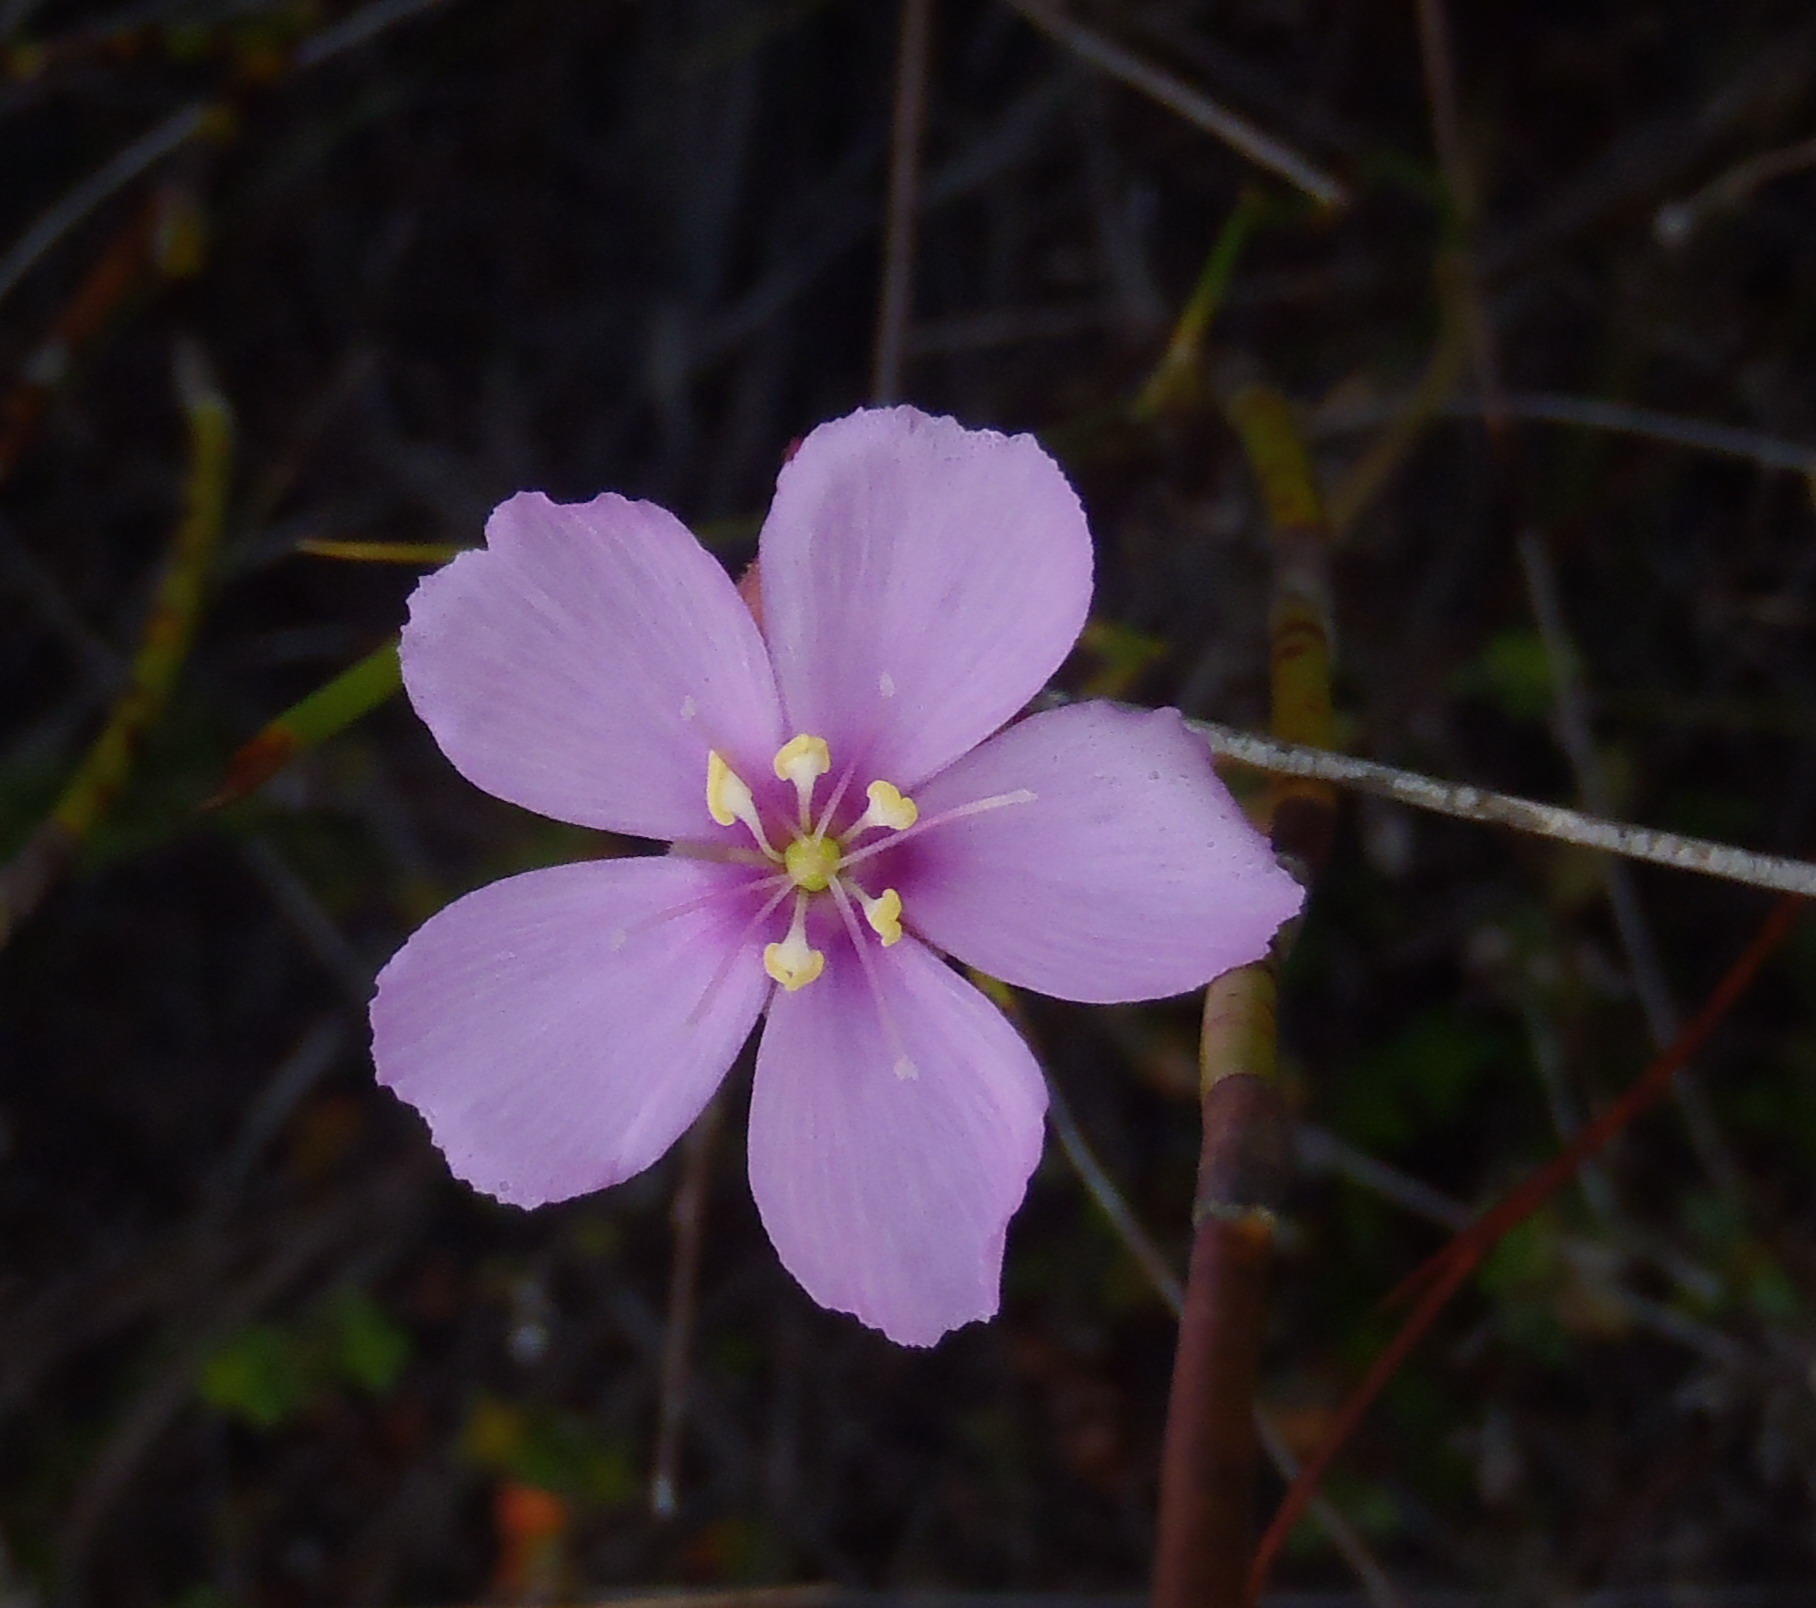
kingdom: Plantae
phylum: Tracheophyta
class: Magnoliopsida
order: Caryophyllales
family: Droseraceae
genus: Drosera
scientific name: Drosera xerophila
